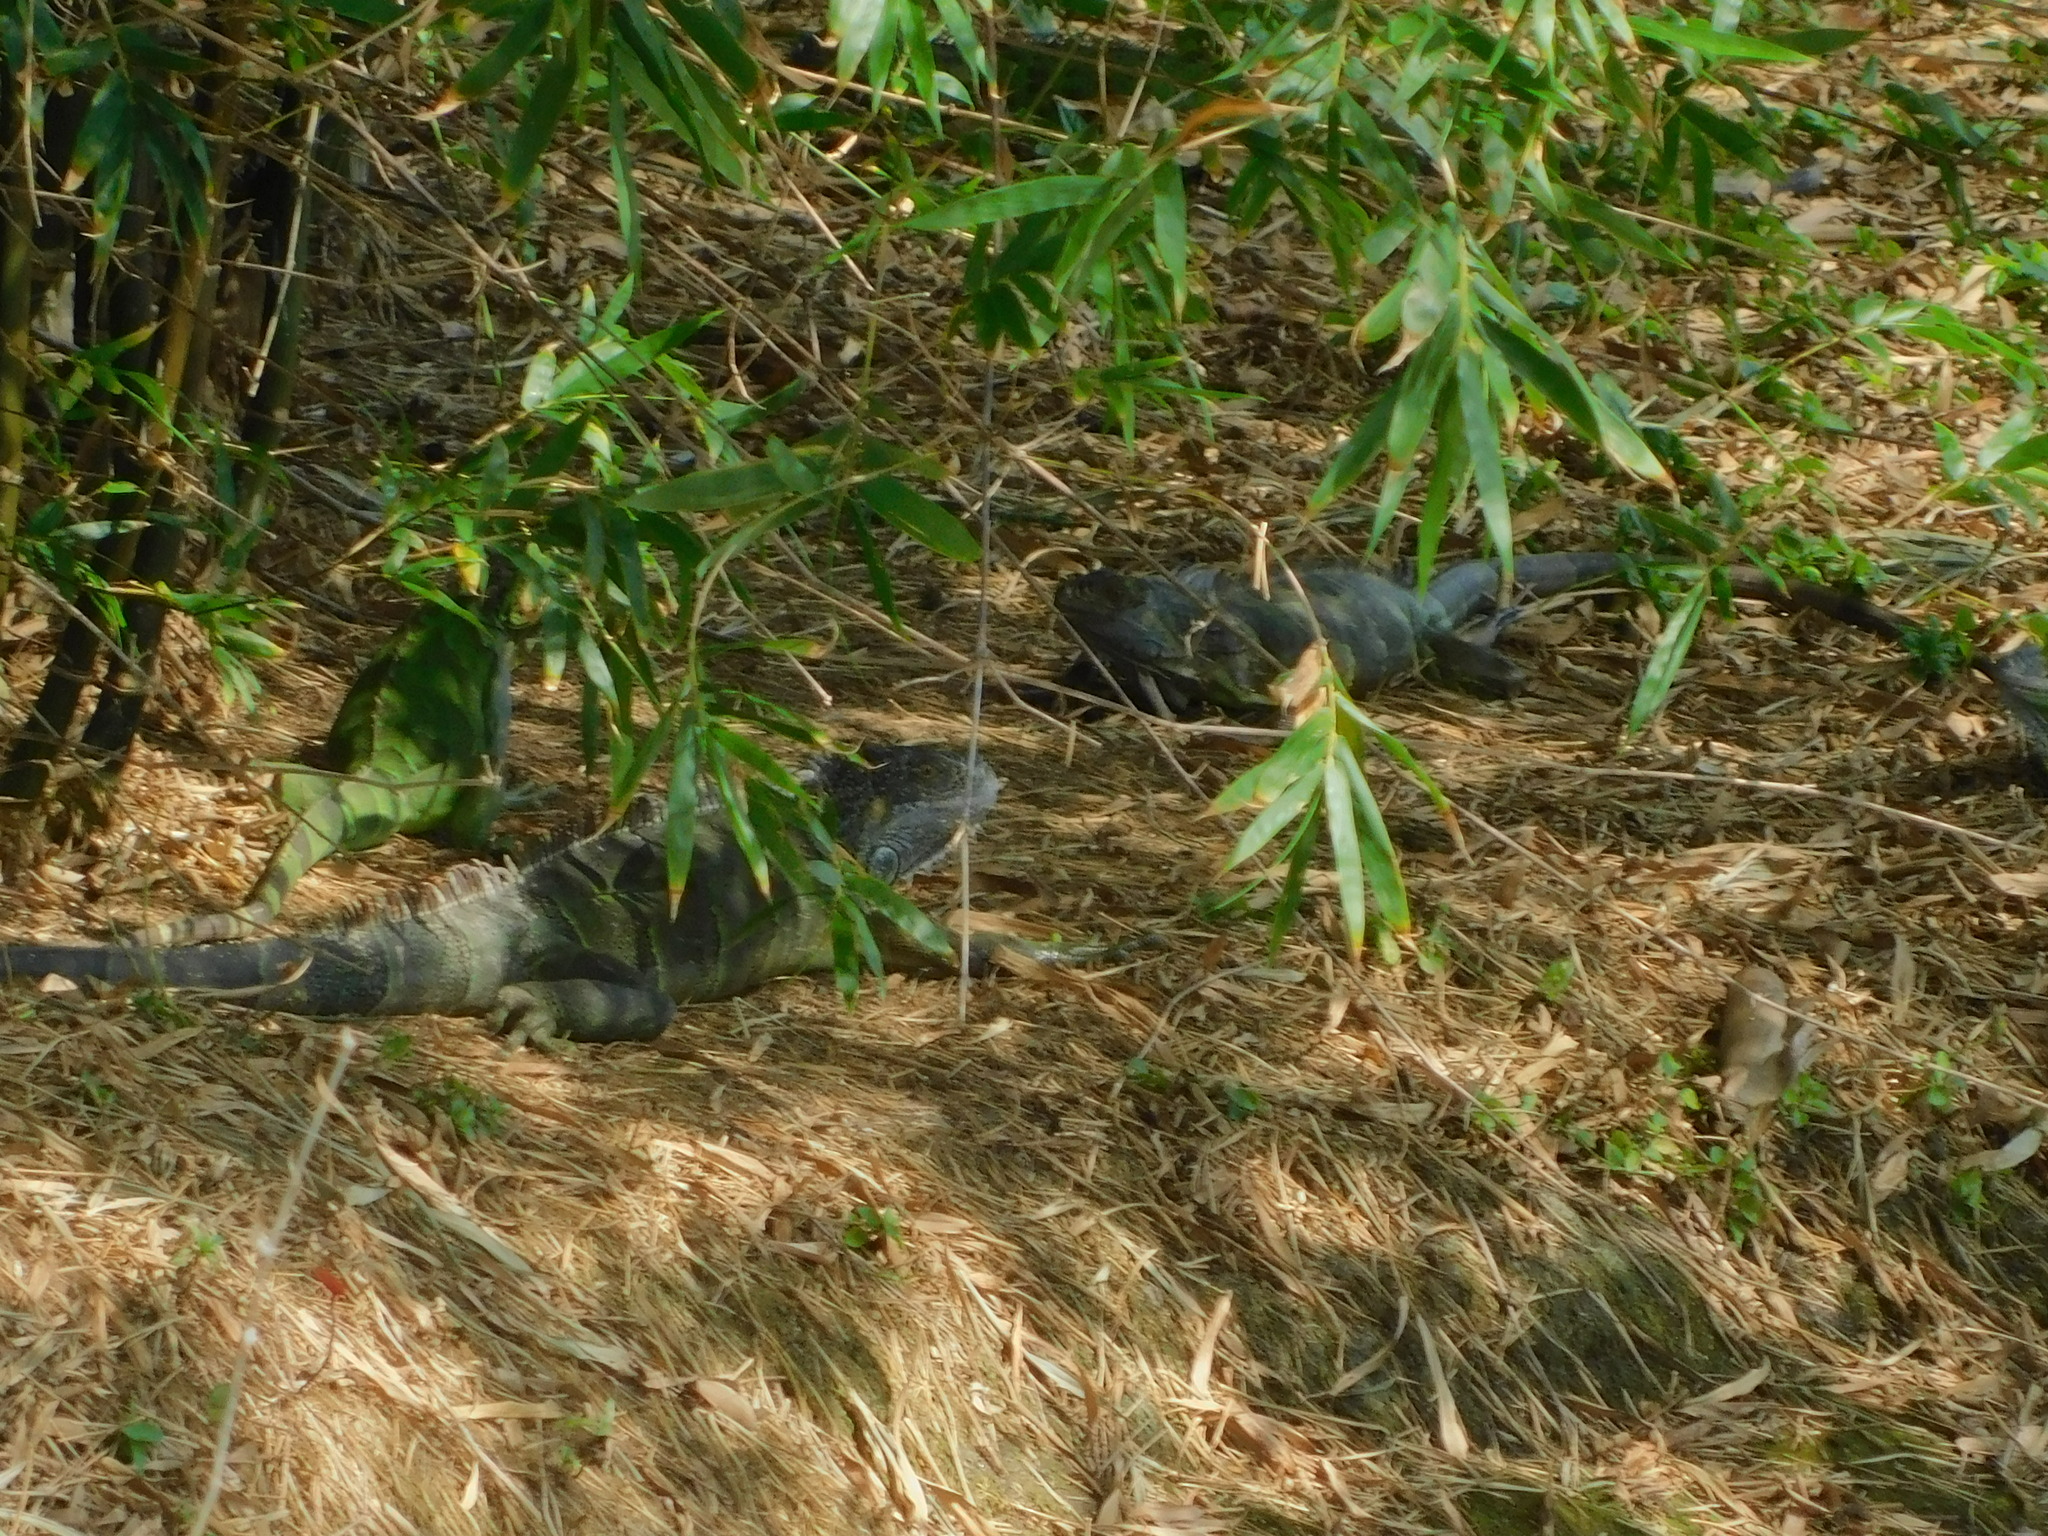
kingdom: Animalia
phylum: Chordata
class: Squamata
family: Iguanidae
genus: Iguana
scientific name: Iguana iguana
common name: Green iguana
